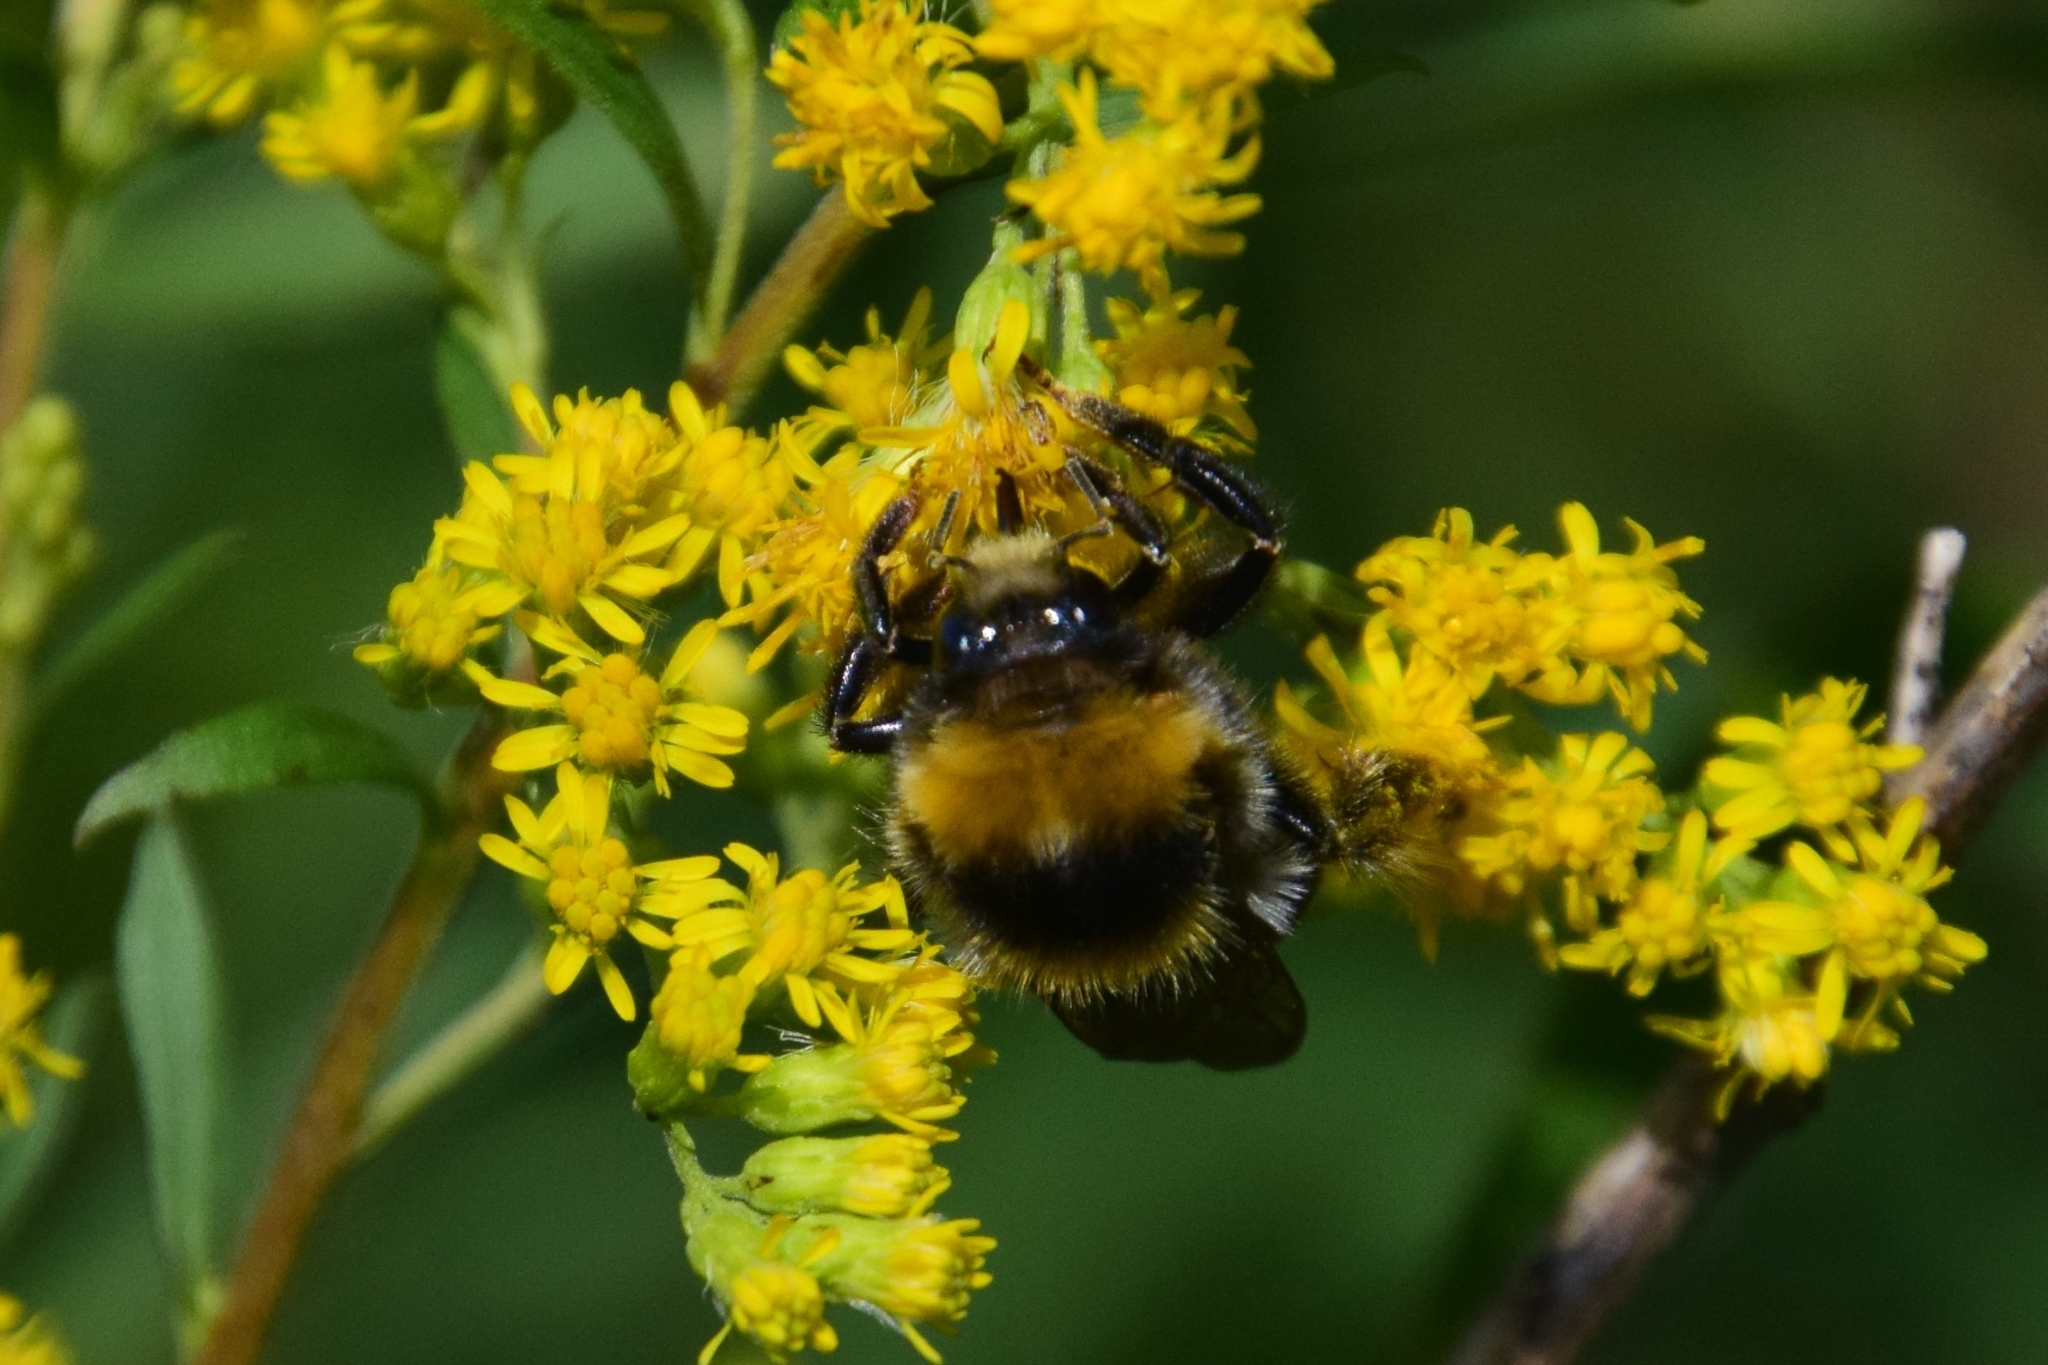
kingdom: Animalia
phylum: Arthropoda
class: Insecta
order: Hymenoptera
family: Apidae
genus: Bombus
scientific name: Bombus semenoviellus
